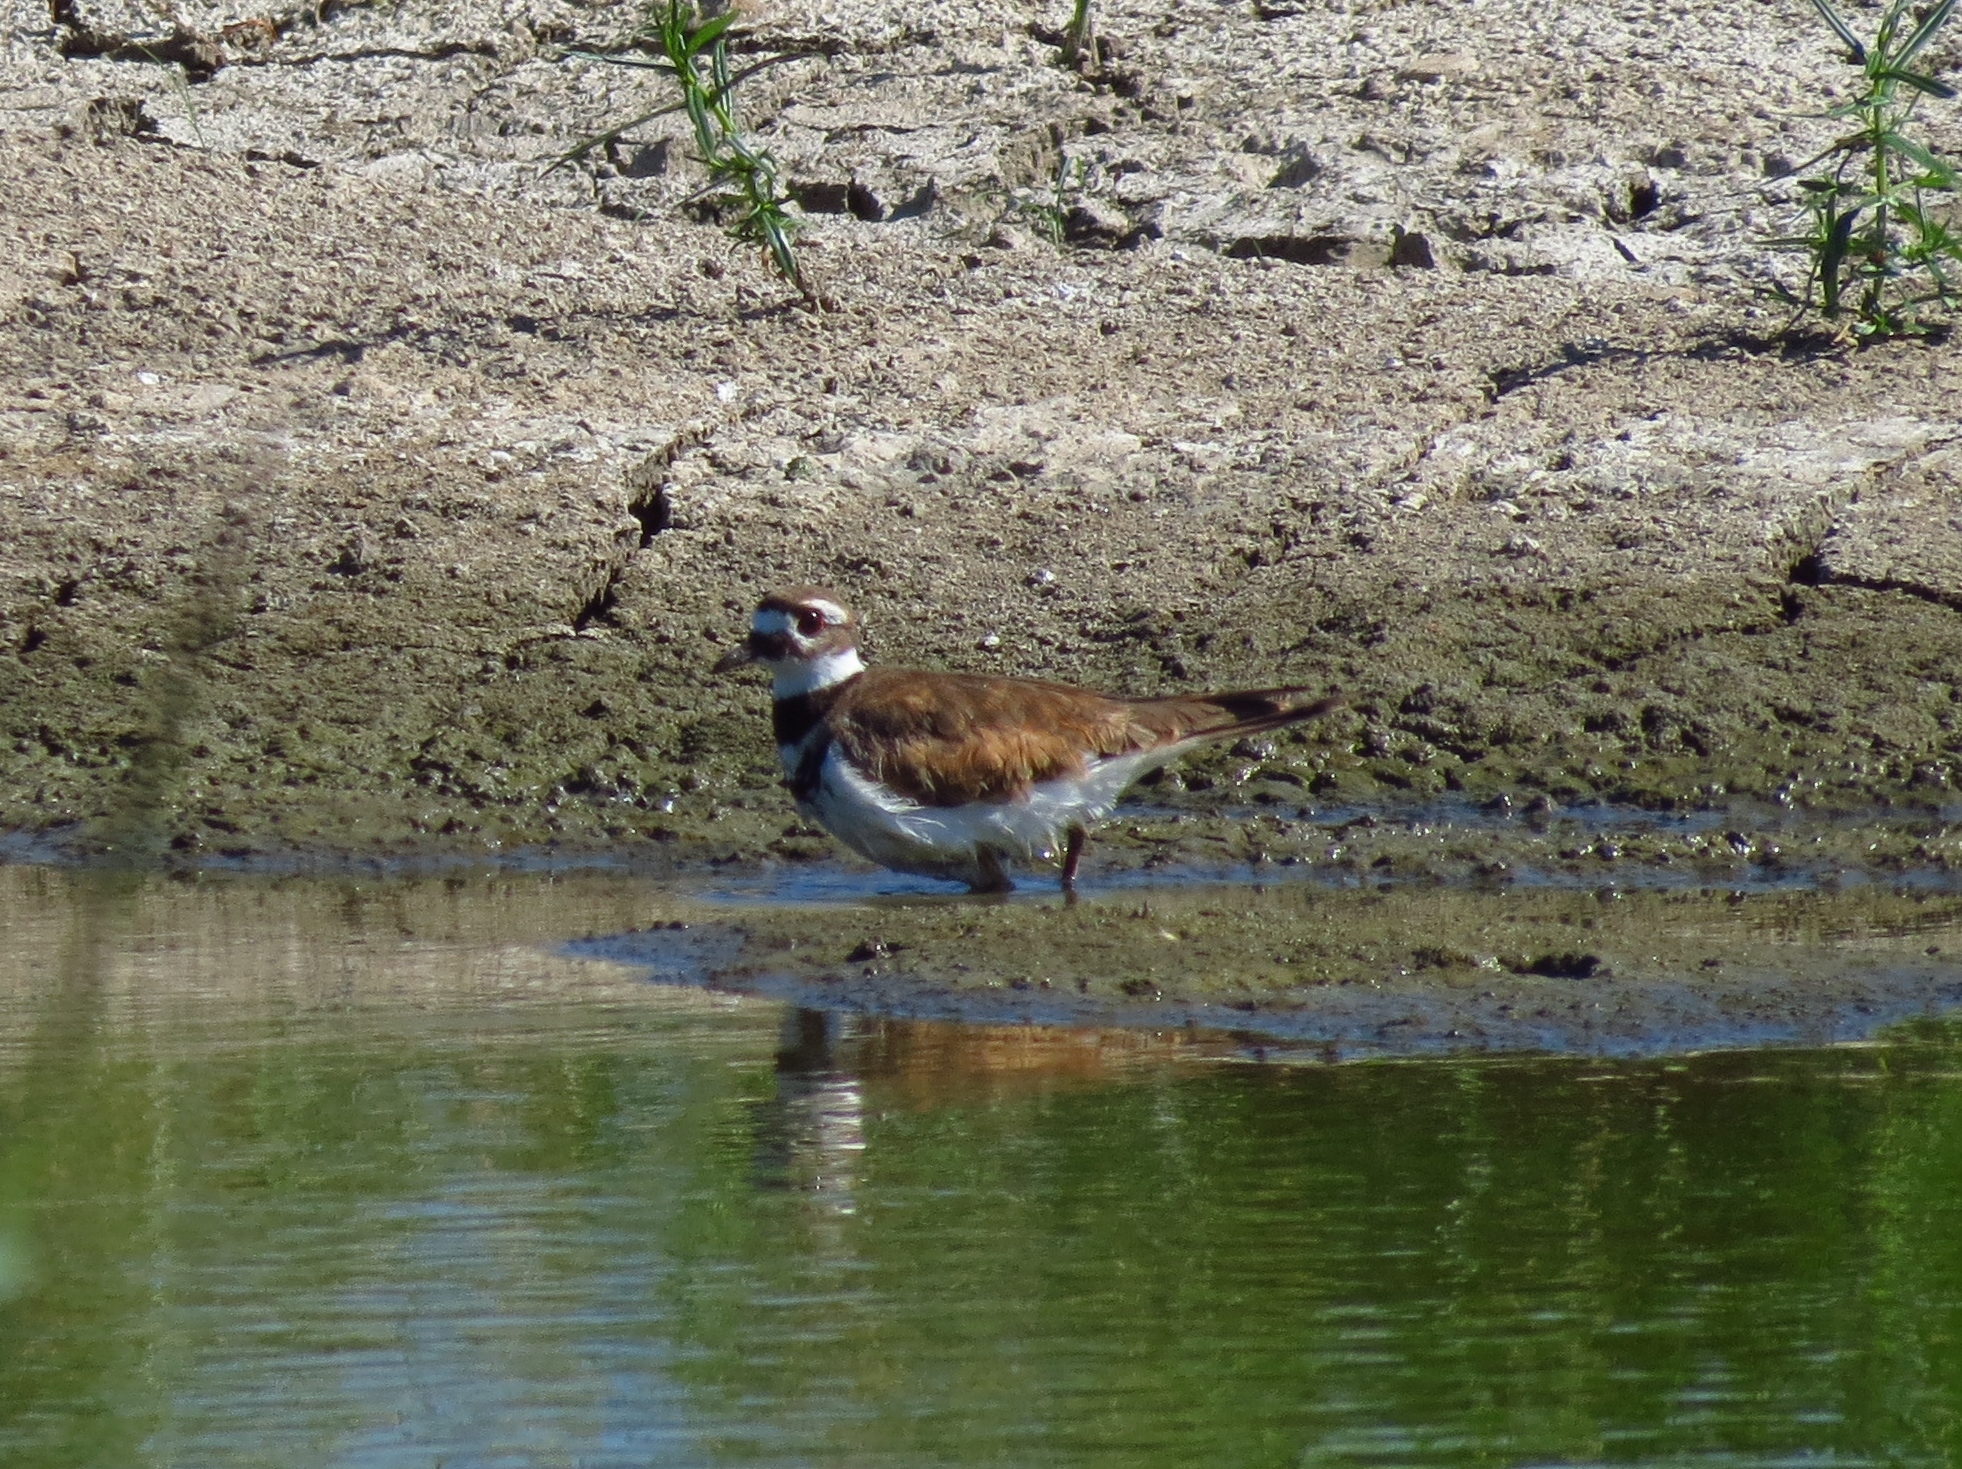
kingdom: Animalia
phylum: Chordata
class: Aves
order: Charadriiformes
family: Charadriidae
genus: Charadrius
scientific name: Charadrius vociferus
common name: Killdeer
